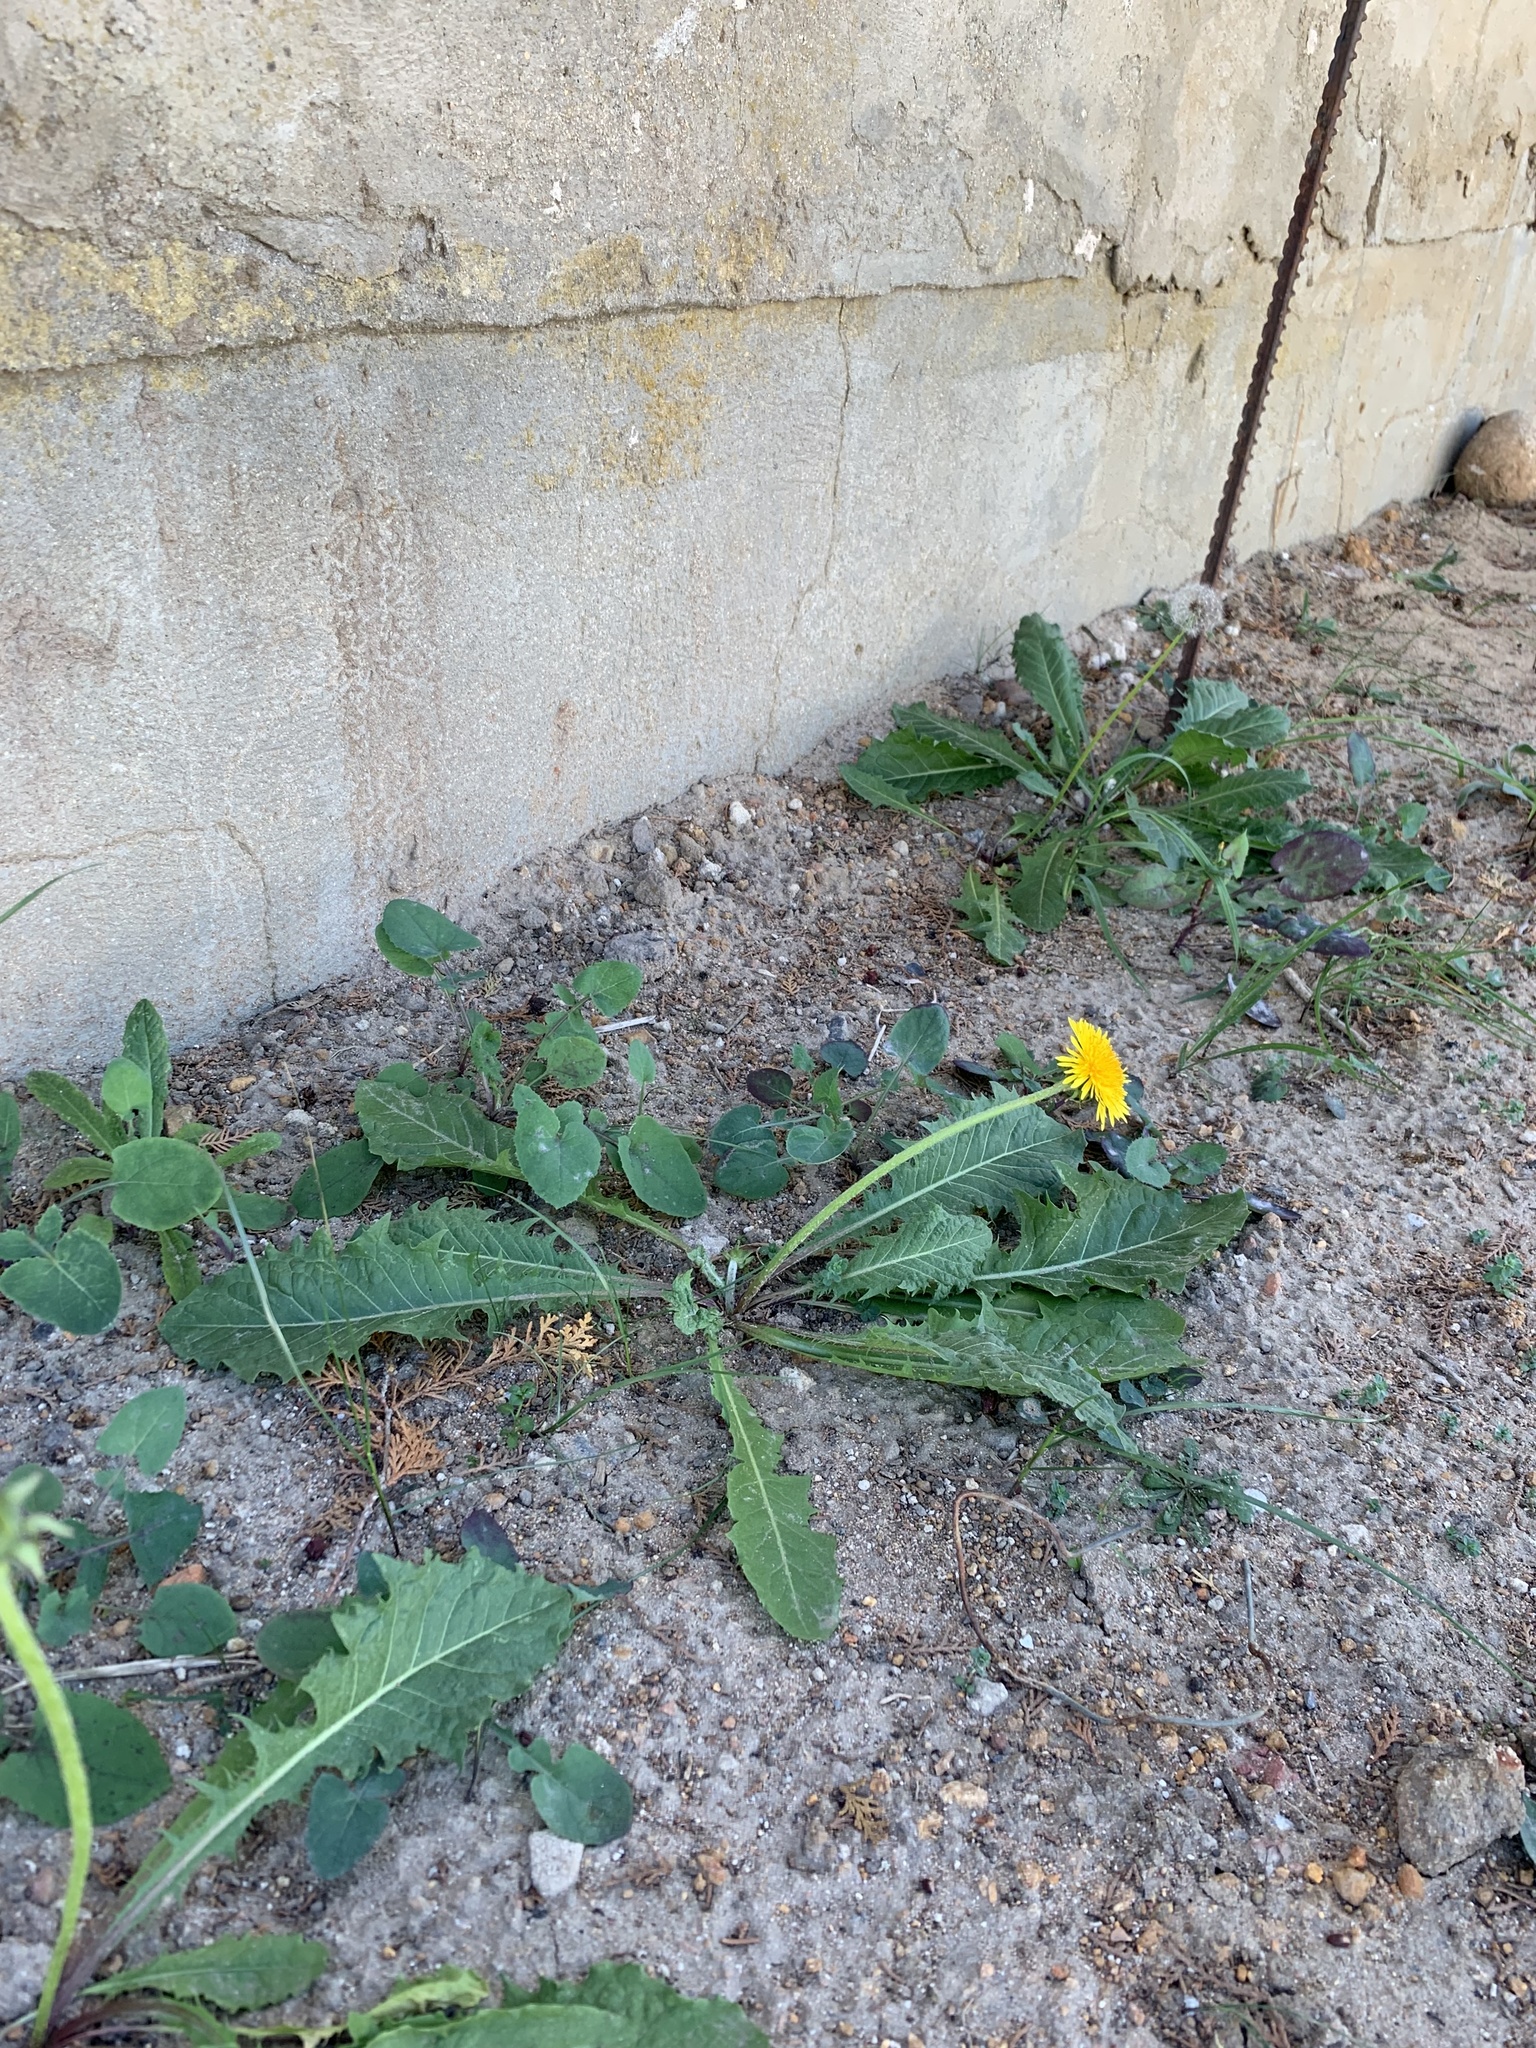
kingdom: Plantae
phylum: Tracheophyta
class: Magnoliopsida
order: Asterales
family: Asteraceae
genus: Taraxacum
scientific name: Taraxacum officinale
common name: Common dandelion
